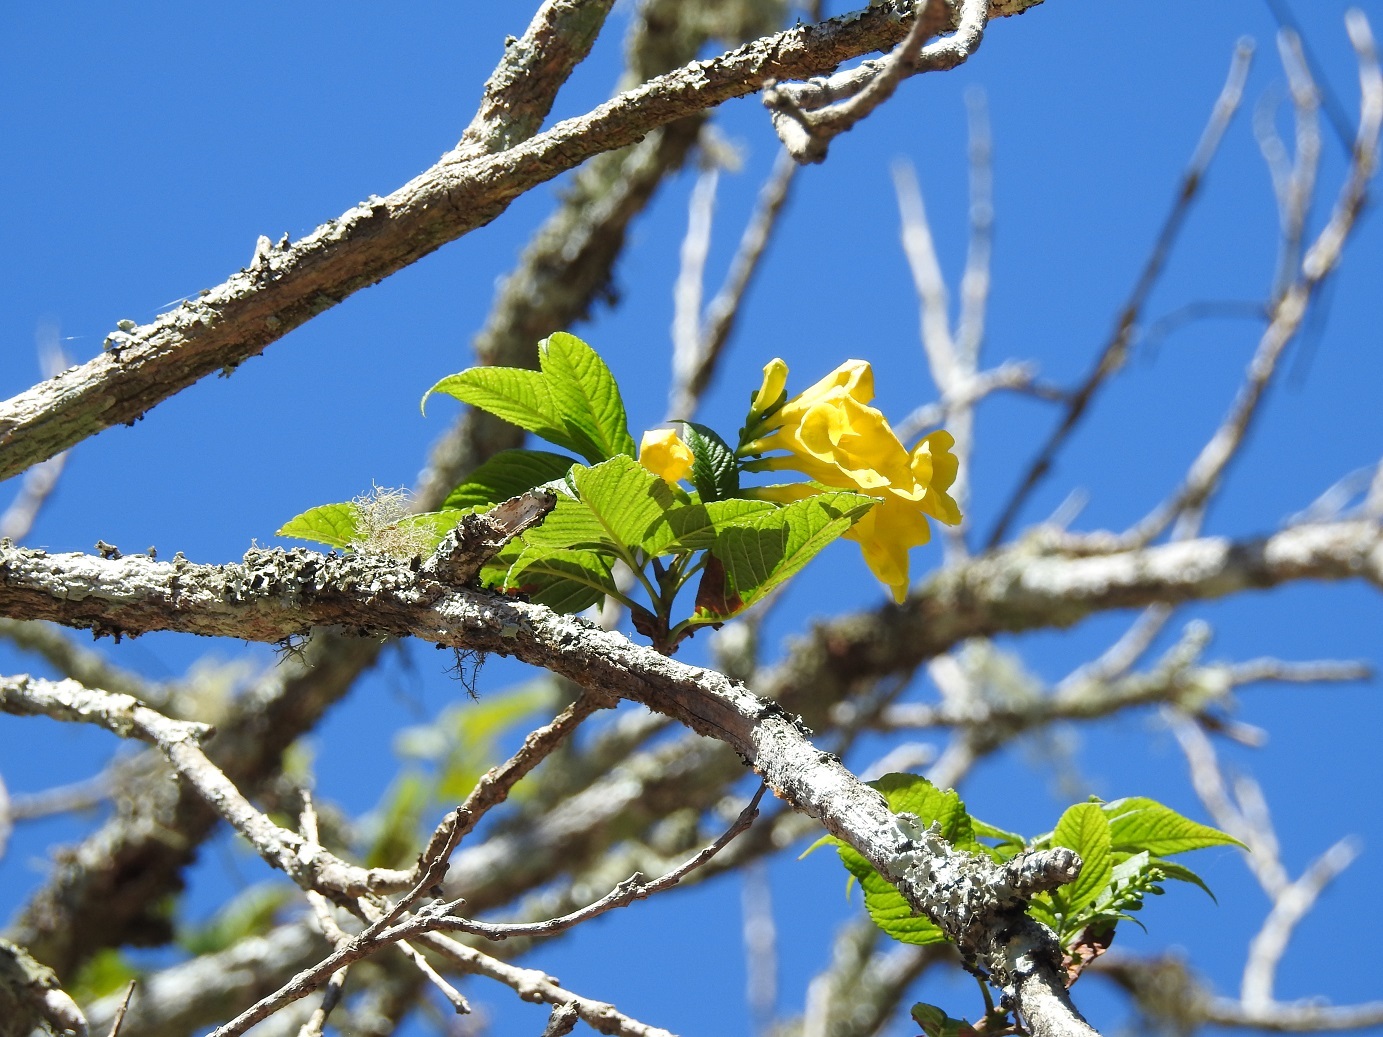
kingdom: Plantae
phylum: Tracheophyta
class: Magnoliopsida
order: Lamiales
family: Bignoniaceae
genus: Tecoma
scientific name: Tecoma stans
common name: Yellow trumpetbush
